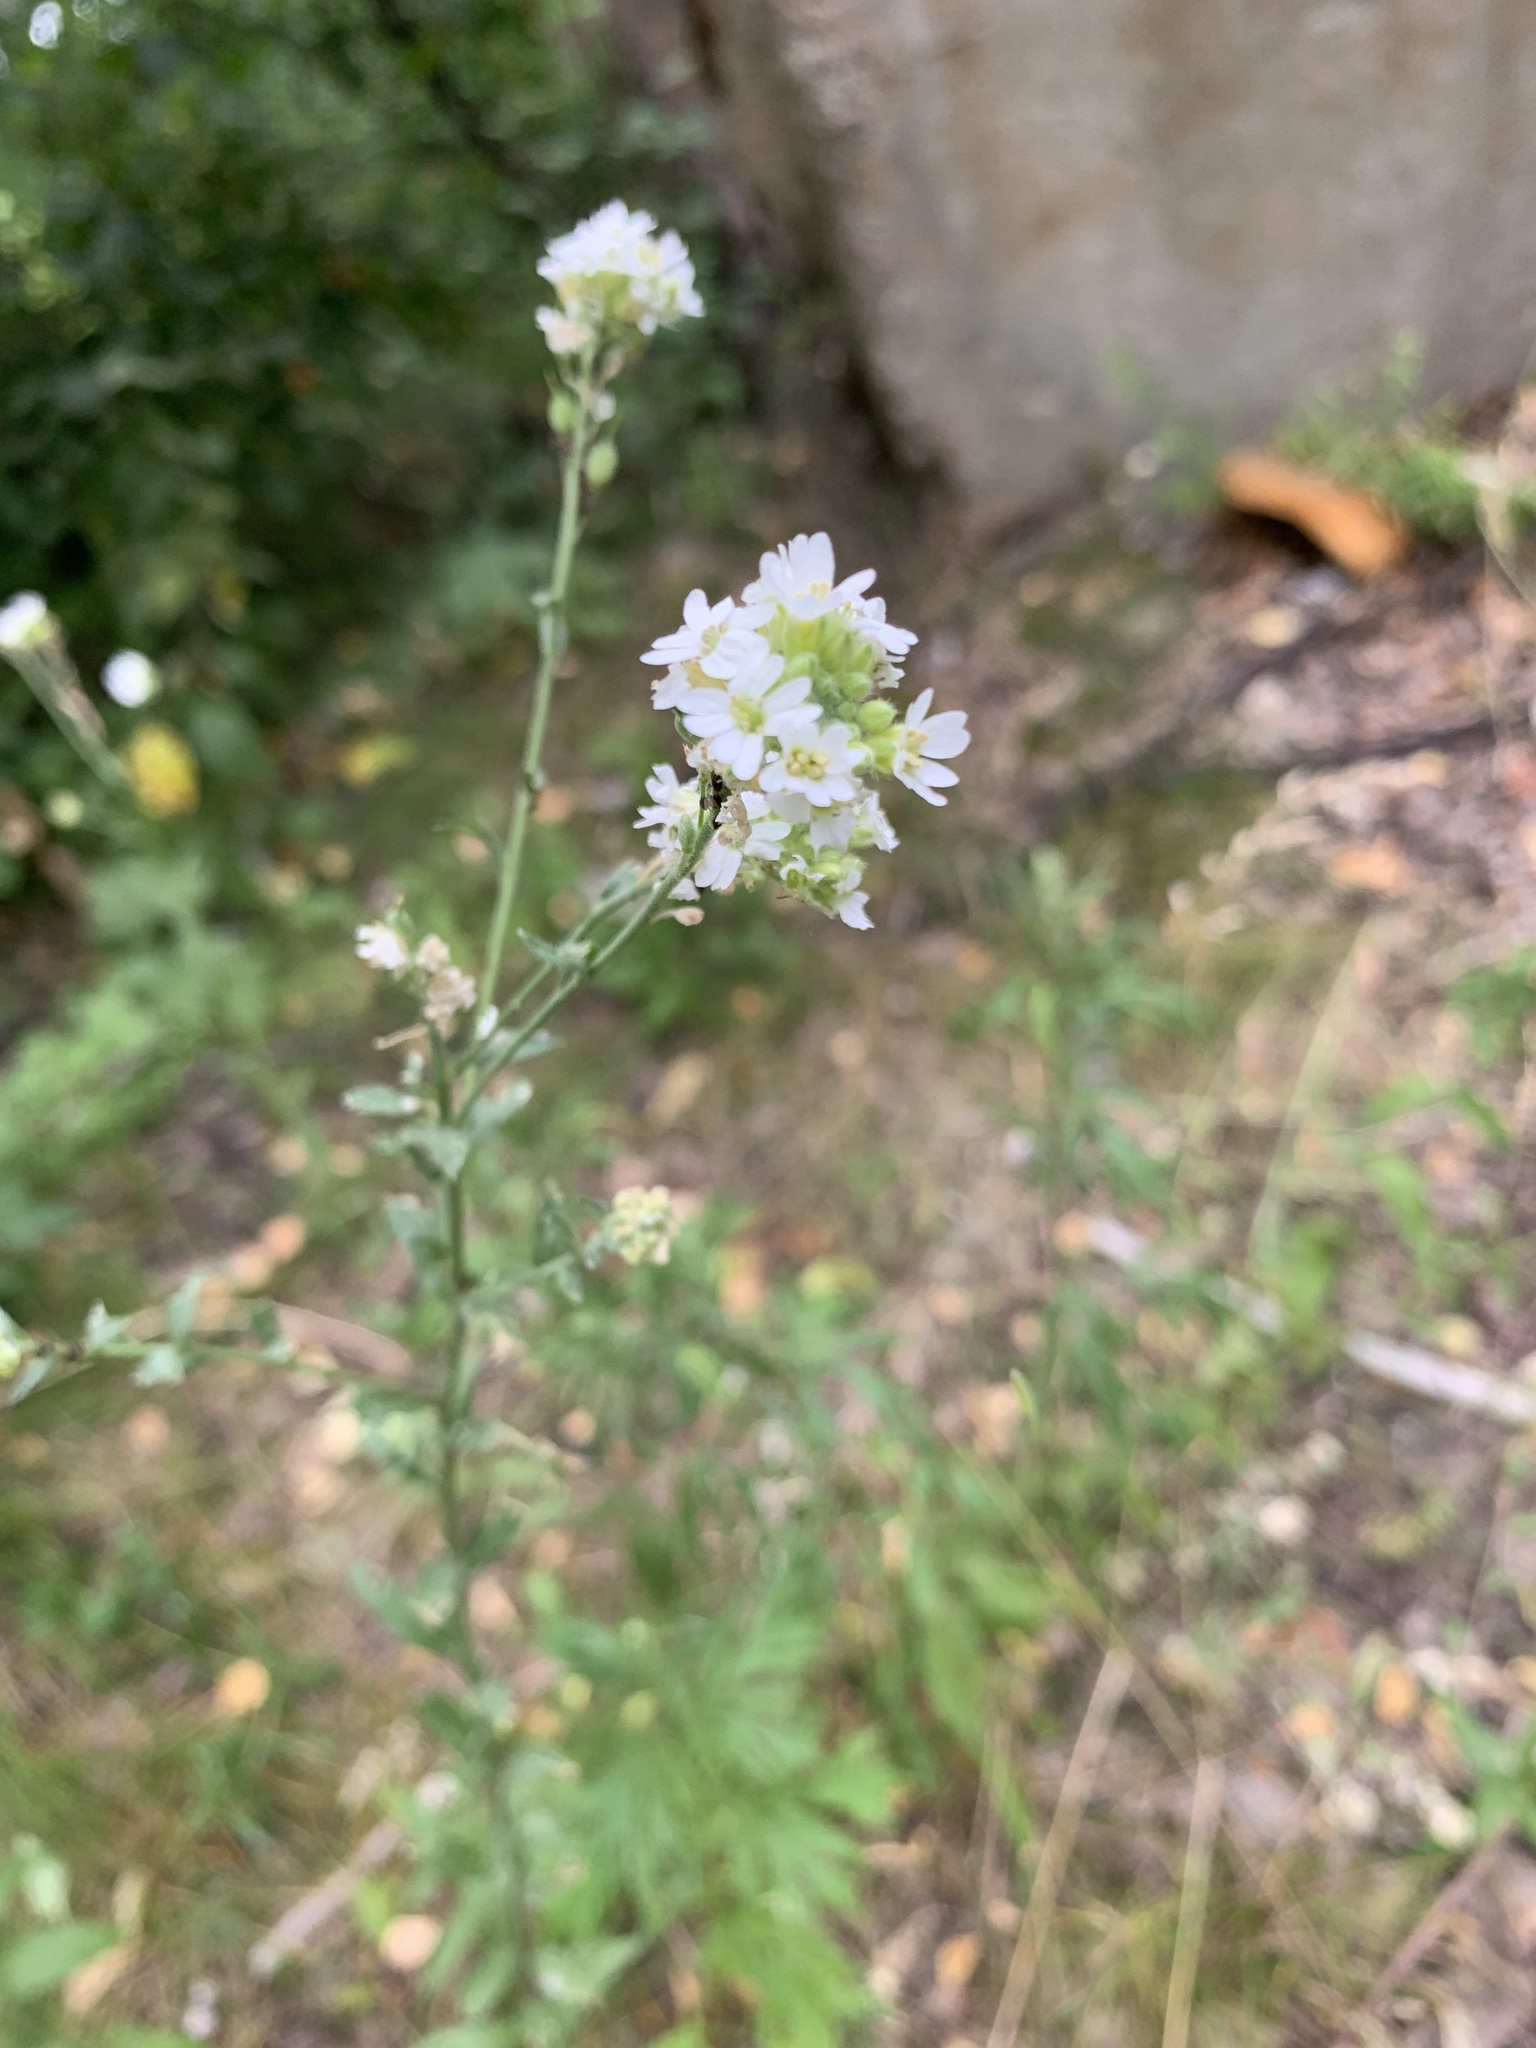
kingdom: Plantae
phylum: Tracheophyta
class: Magnoliopsida
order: Brassicales
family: Brassicaceae
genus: Berteroa
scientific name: Berteroa incana
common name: Hoary alison
